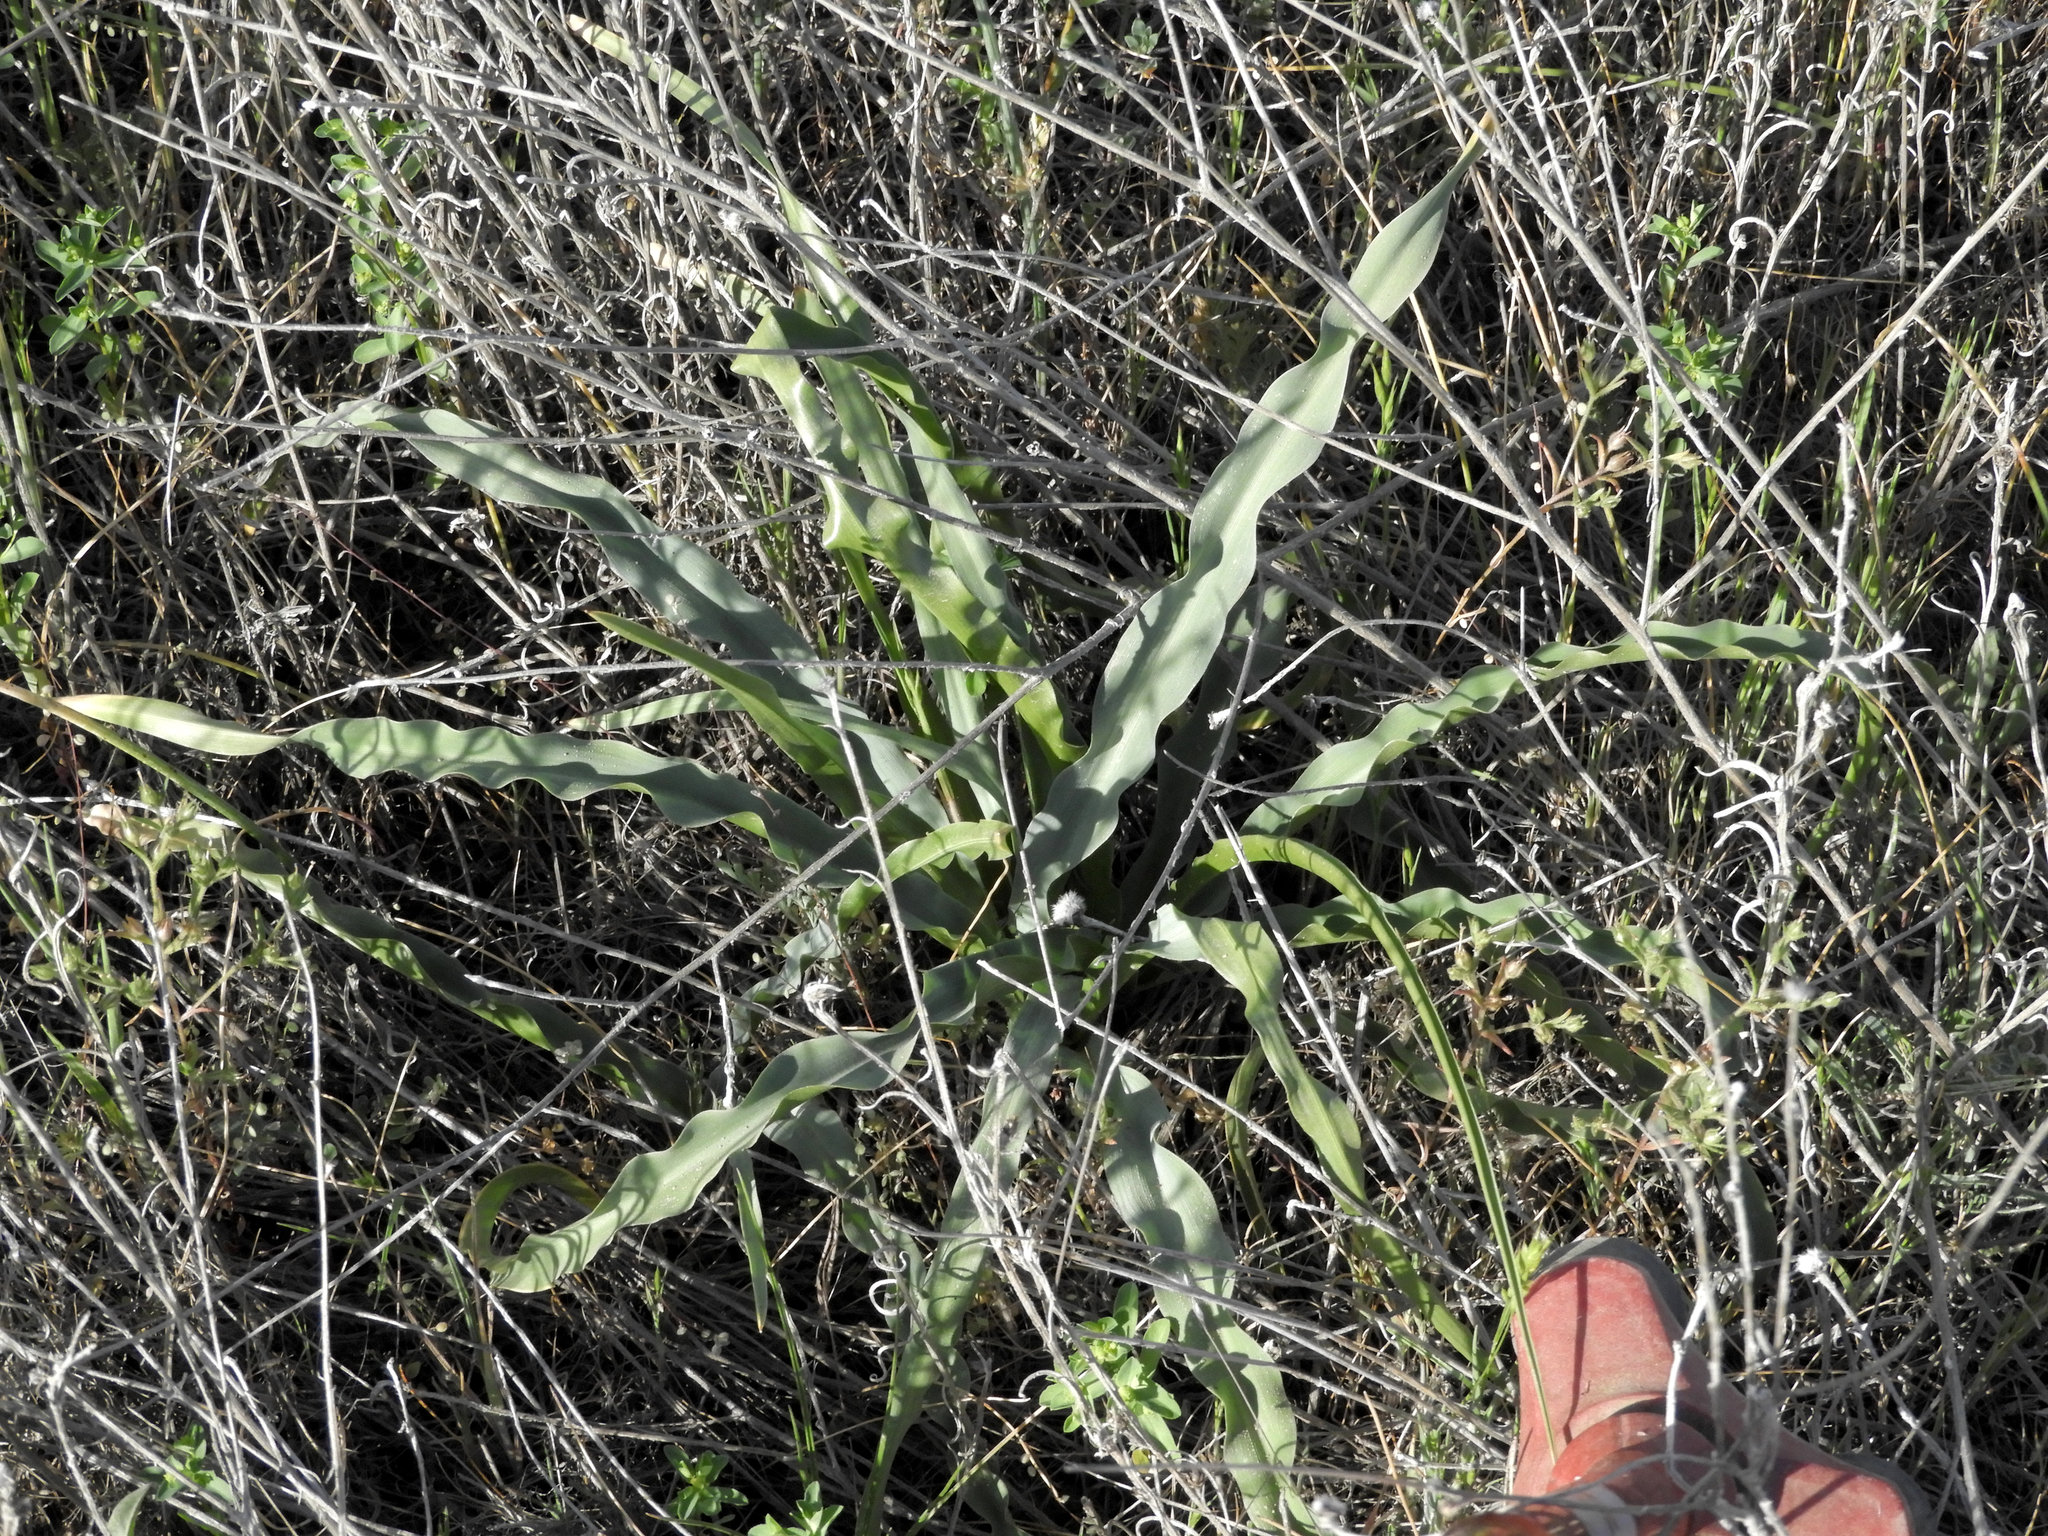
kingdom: Plantae
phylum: Tracheophyta
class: Liliopsida
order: Asparagales
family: Asparagaceae
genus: Chlorogalum
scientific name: Chlorogalum pomeridianum
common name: Amole
